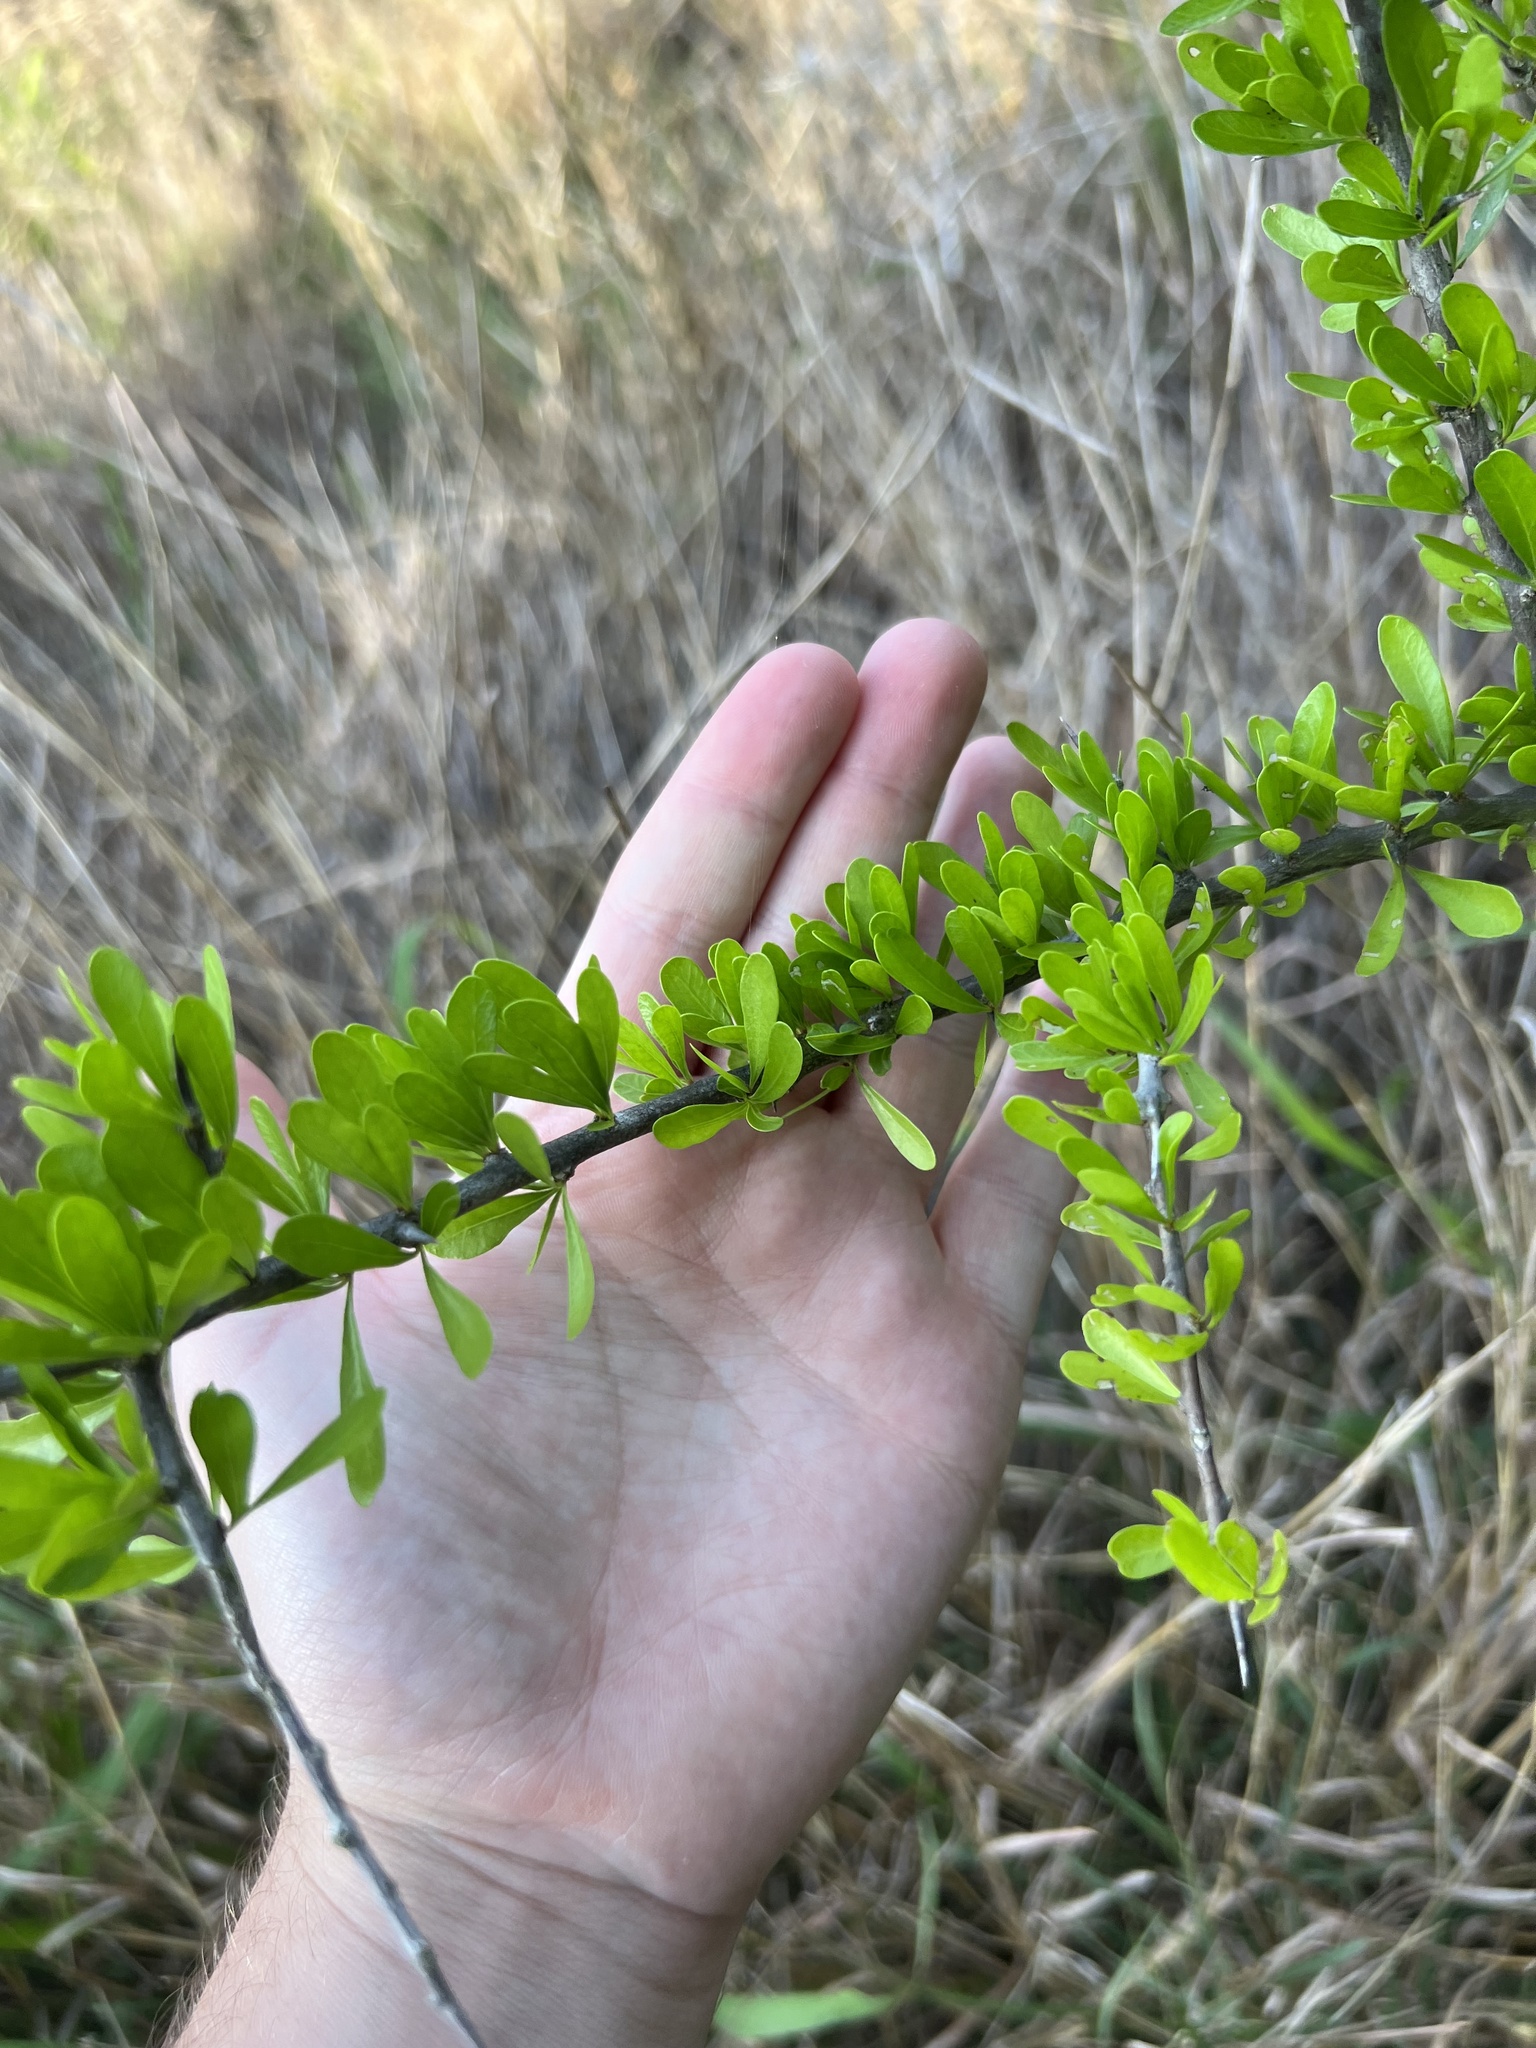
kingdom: Plantae
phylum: Tracheophyta
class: Magnoliopsida
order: Ericales
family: Sapotaceae
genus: Sideroxylon
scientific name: Sideroxylon celastrinum
